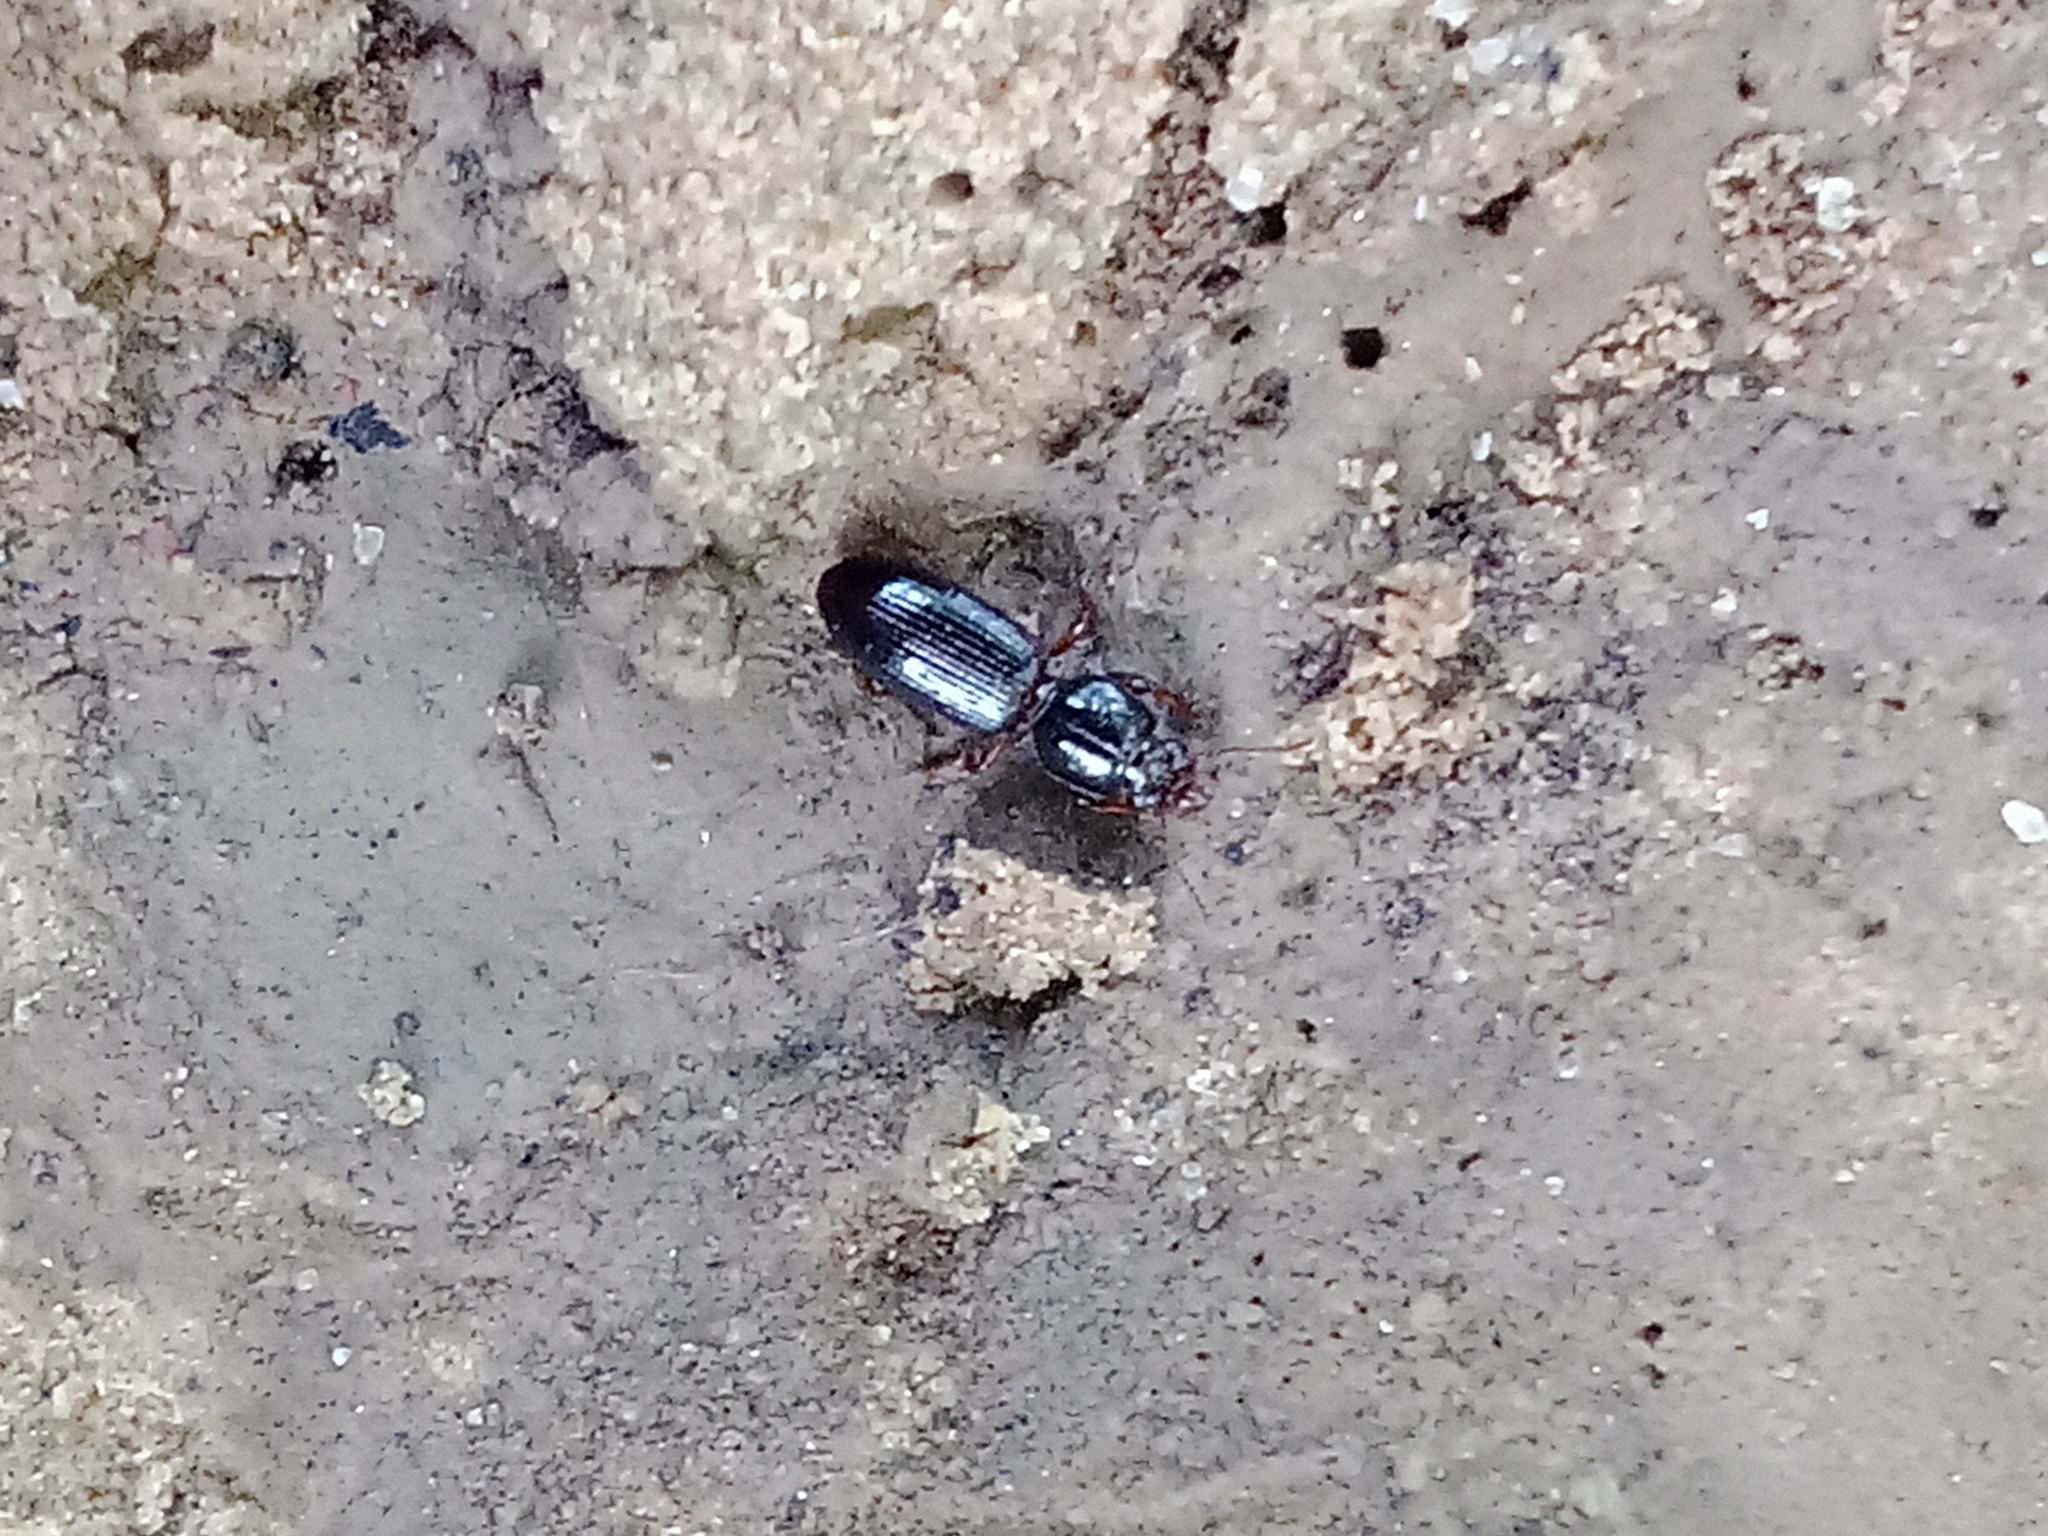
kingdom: Animalia
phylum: Arthropoda
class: Insecta
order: Coleoptera
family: Carabidae
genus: Clivina
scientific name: Clivina fossor
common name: Digging pedunculate ground beetle
